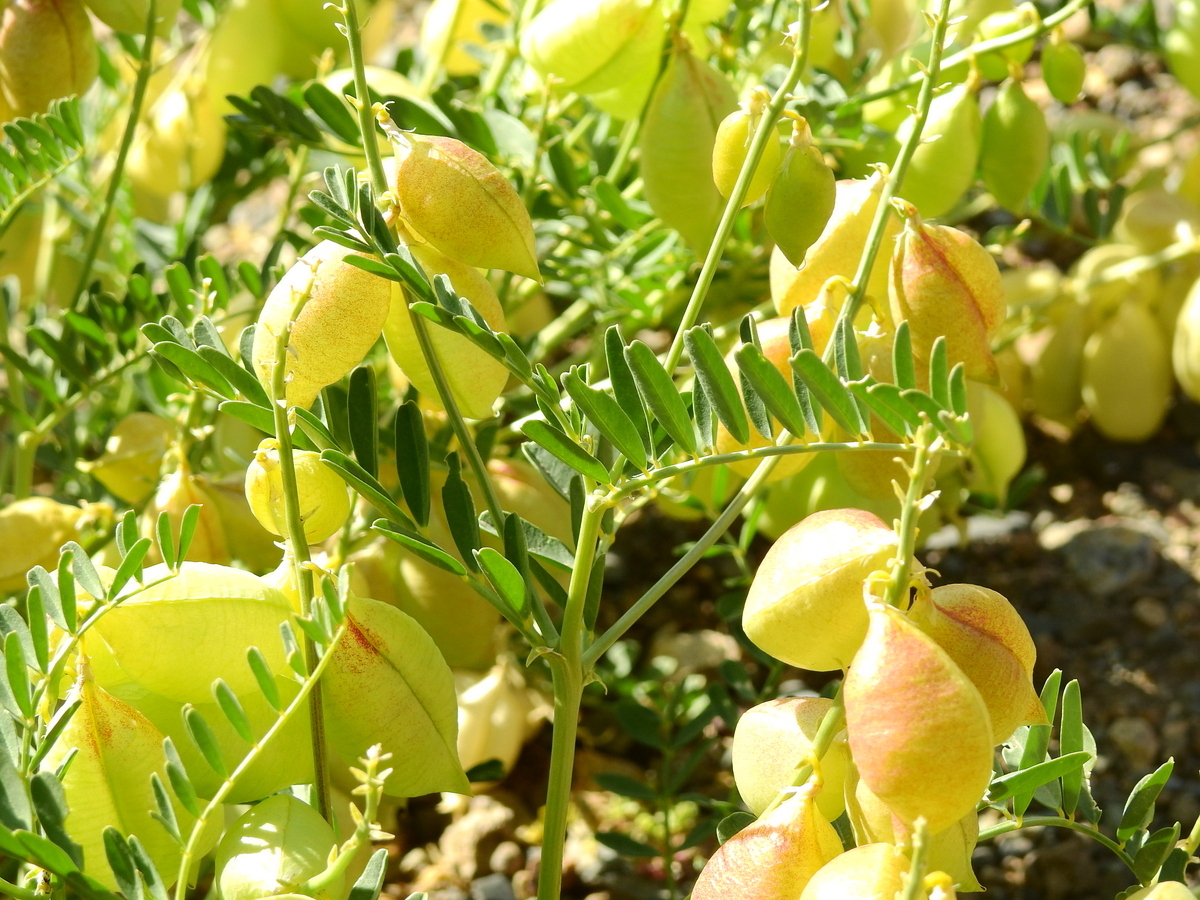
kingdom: Plantae
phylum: Tracheophyta
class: Magnoliopsida
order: Fabales
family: Fabaceae
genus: Astragalus
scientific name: Astragalus pehuenches
